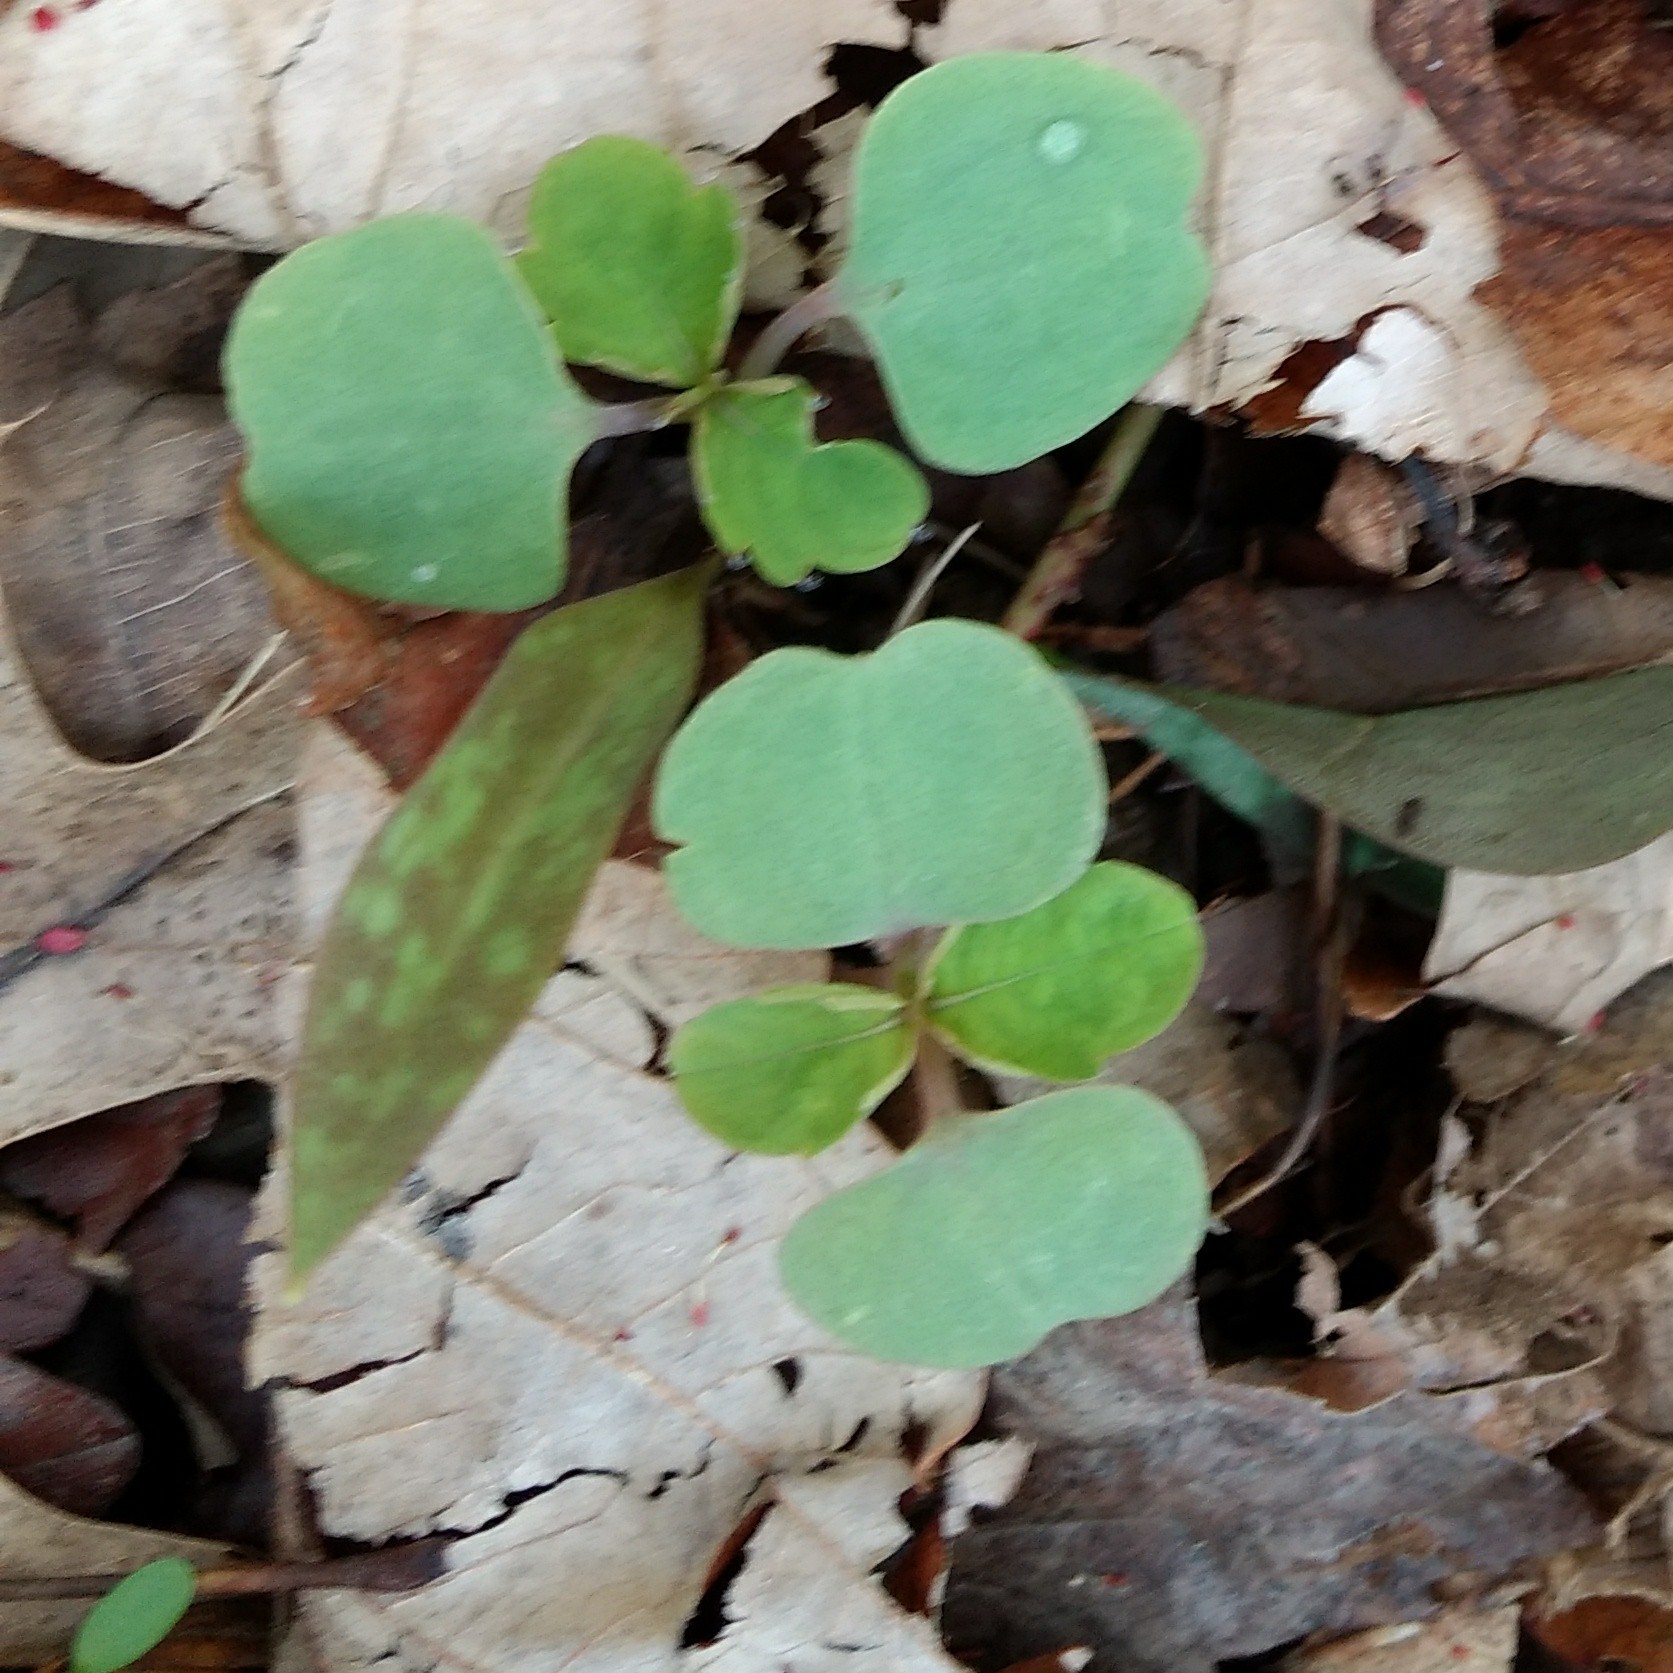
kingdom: Plantae
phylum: Tracheophyta
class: Magnoliopsida
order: Ericales
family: Balsaminaceae
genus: Impatiens
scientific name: Impatiens
